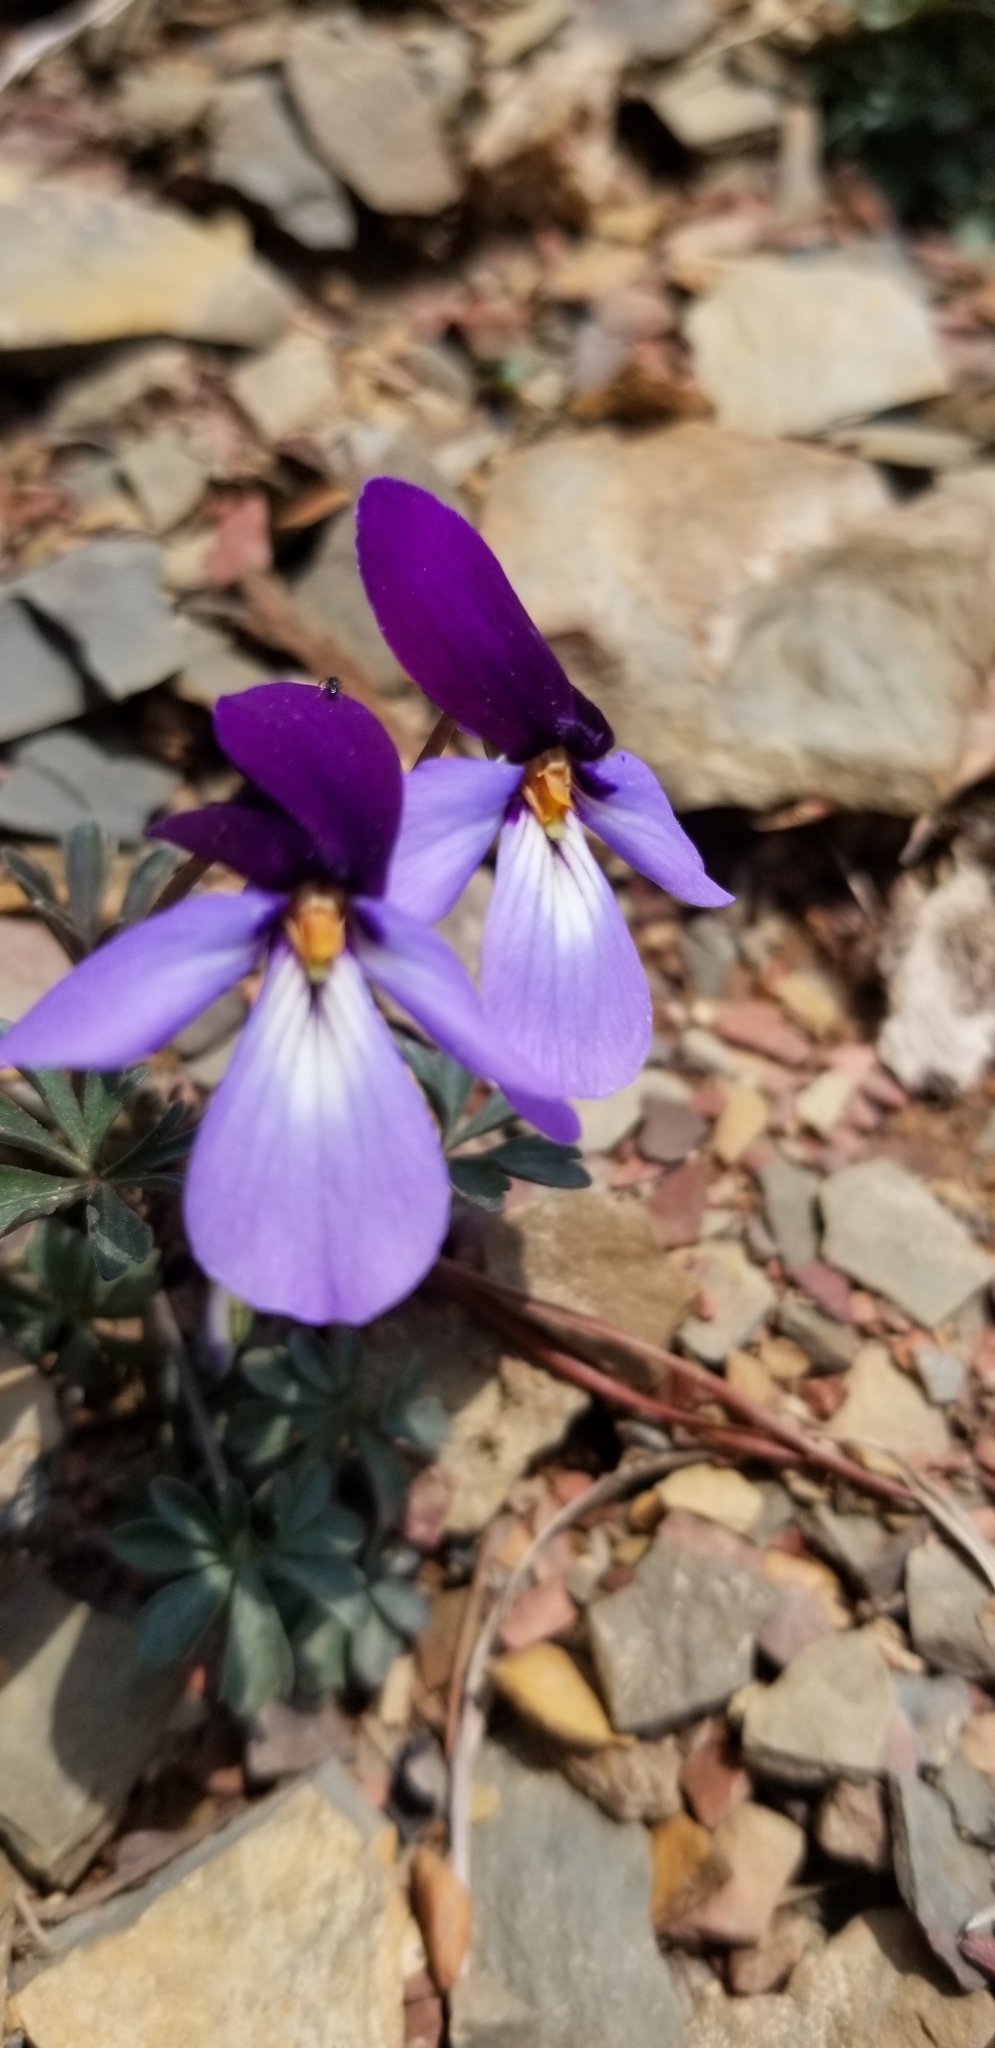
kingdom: Plantae
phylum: Tracheophyta
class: Magnoliopsida
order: Malpighiales
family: Violaceae
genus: Viola
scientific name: Viola pedata
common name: Pansy violet
